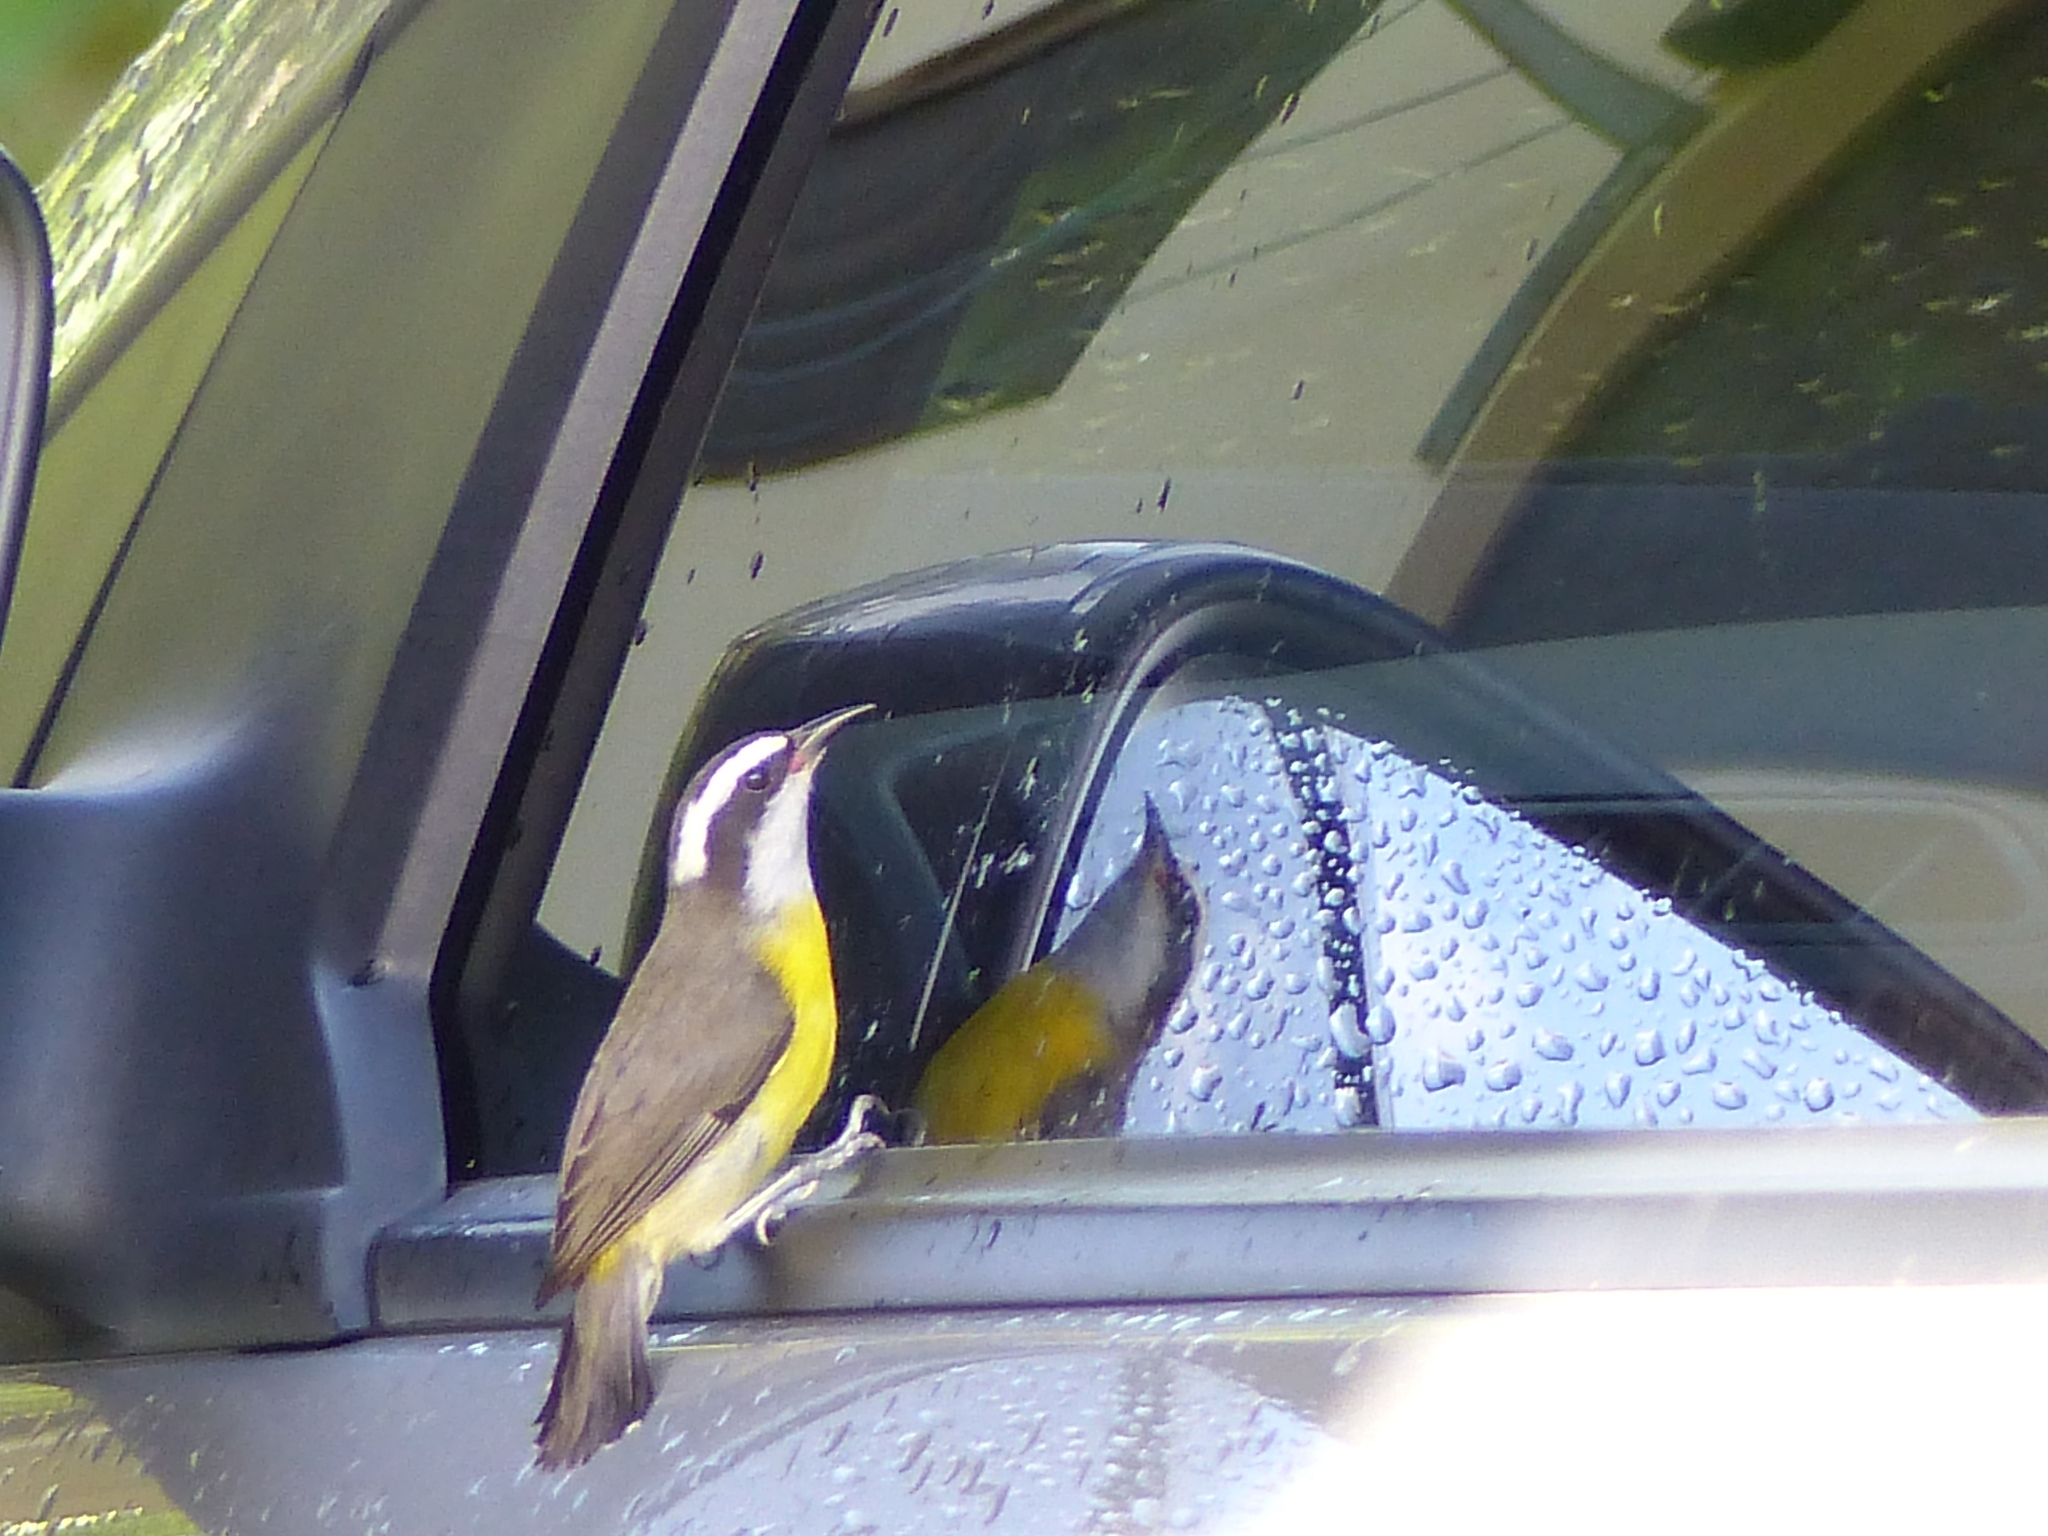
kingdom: Animalia
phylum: Chordata
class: Aves
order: Passeriformes
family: Thraupidae
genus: Coereba
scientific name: Coereba flaveola
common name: Bananaquit
